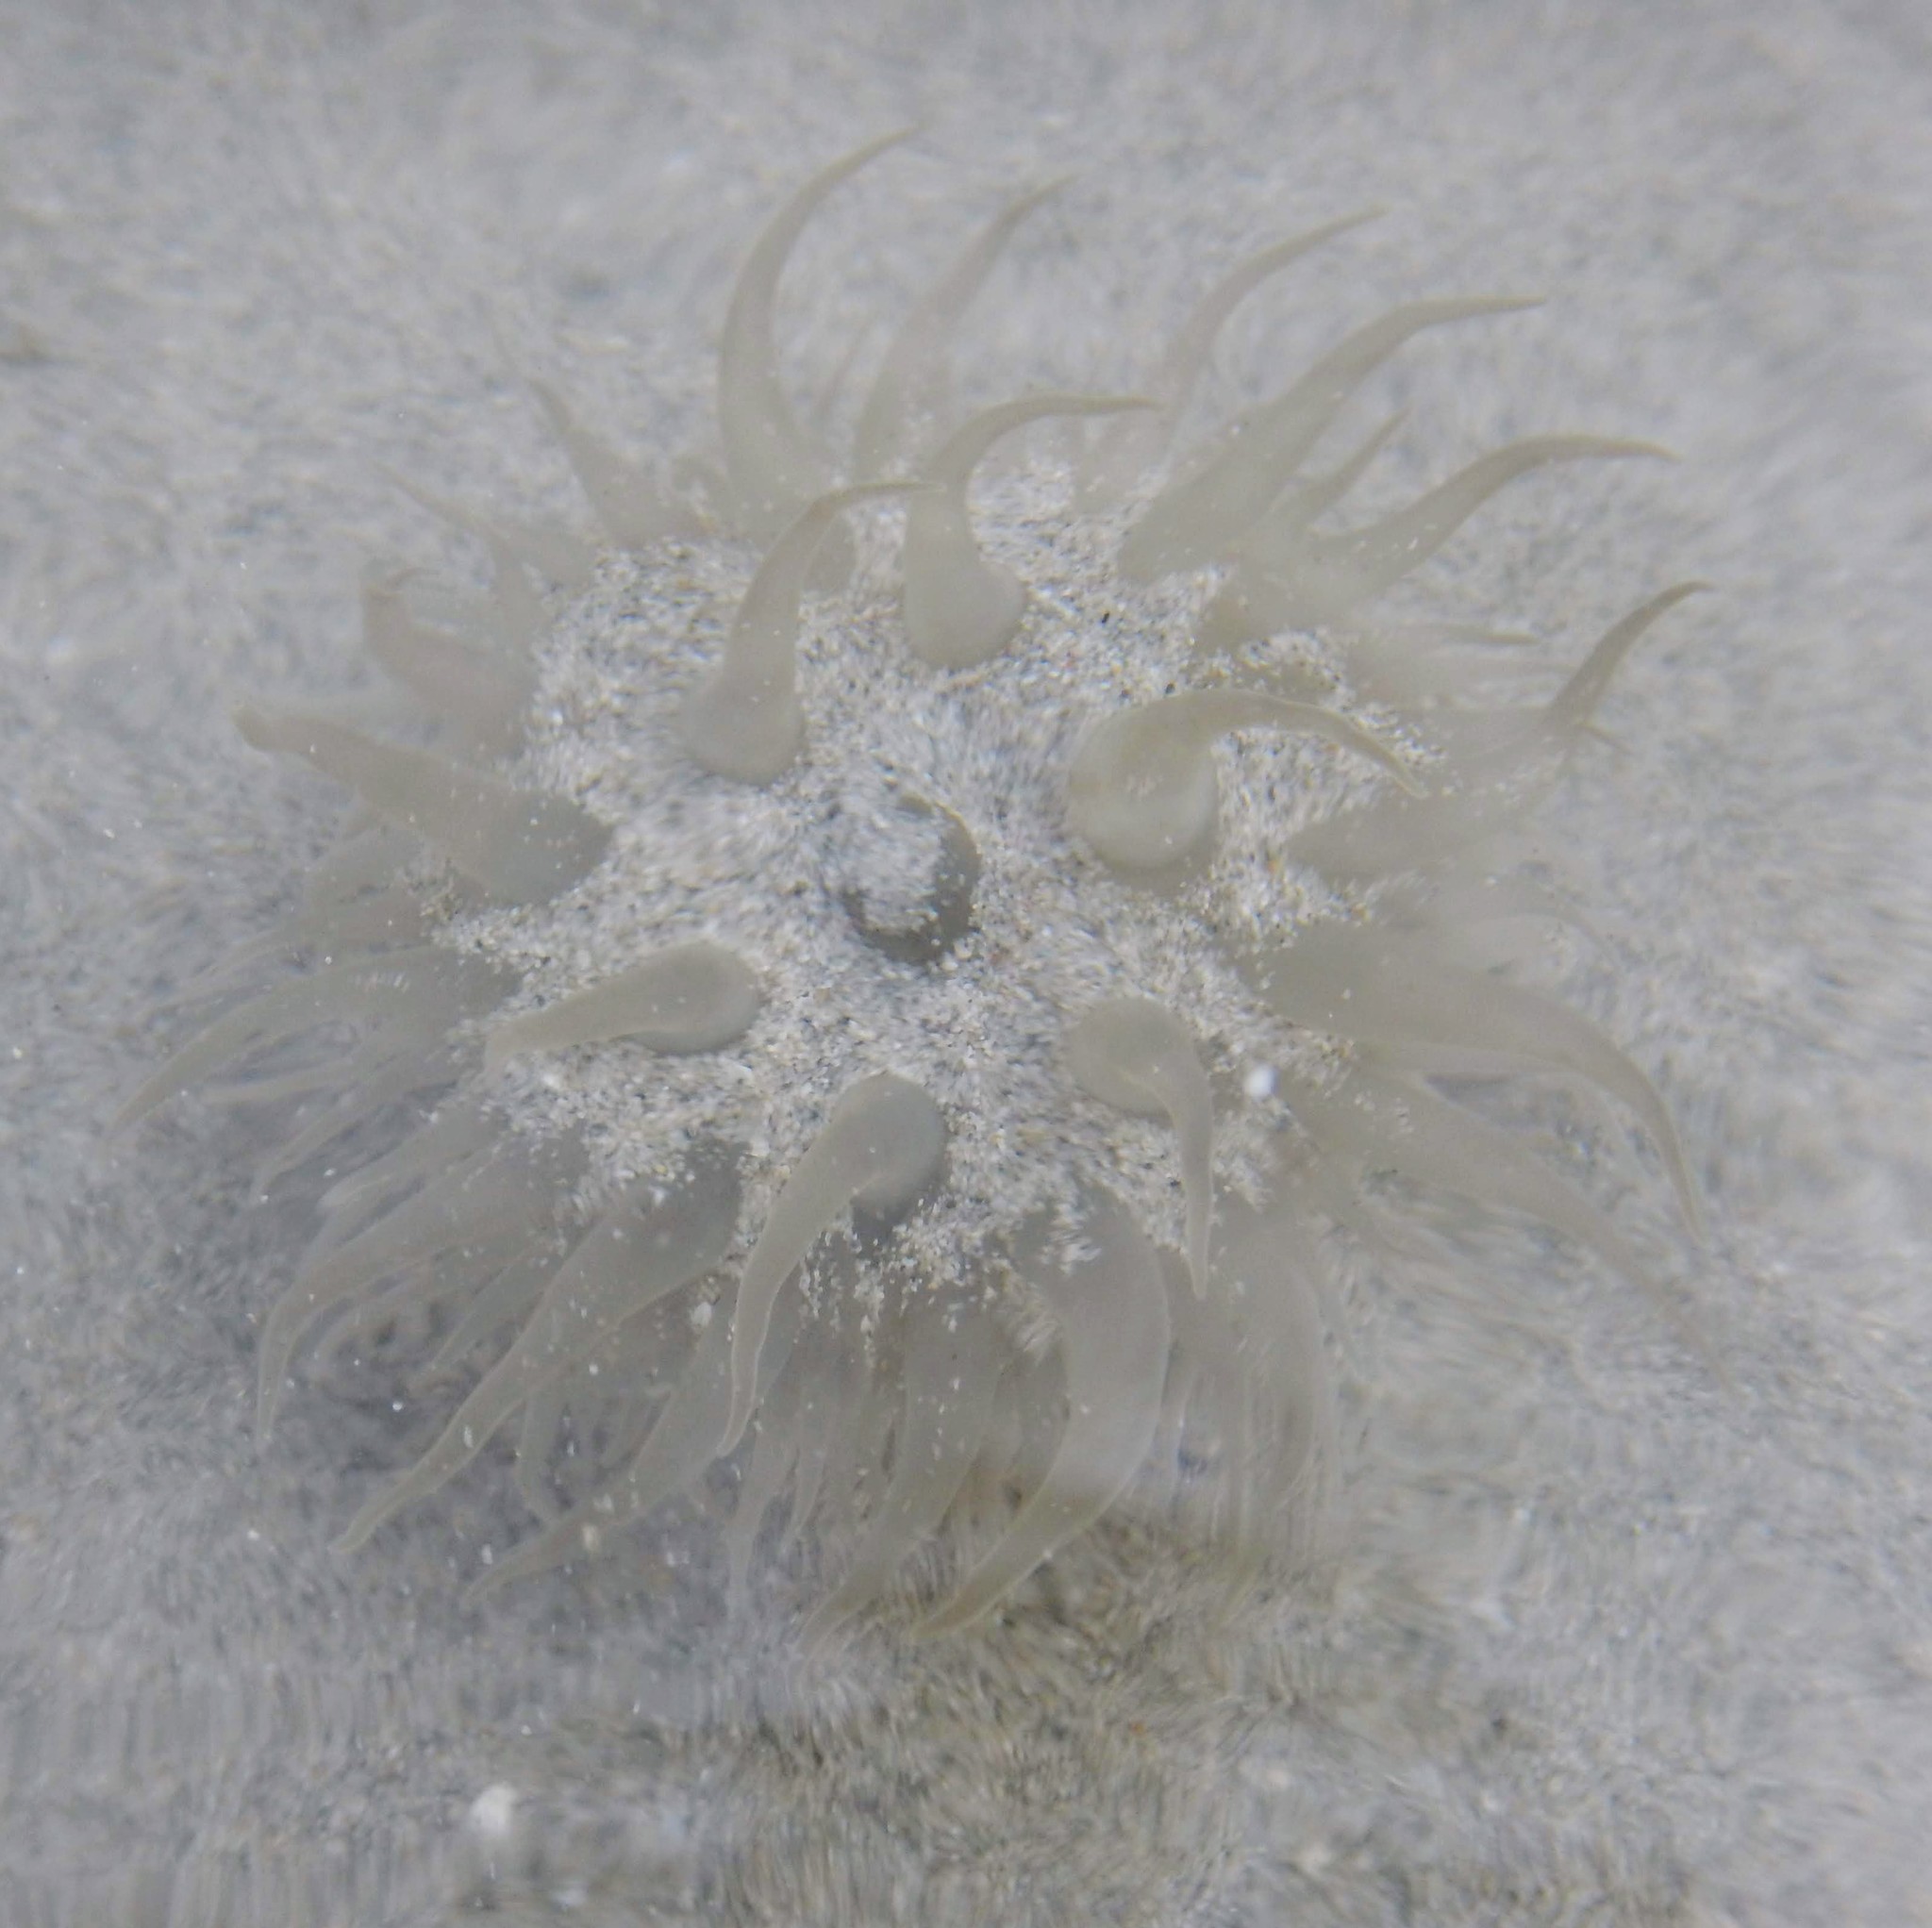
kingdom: Animalia
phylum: Cnidaria
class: Anthozoa
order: Actiniaria
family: Actiniidae
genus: Paracondylactis
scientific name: Paracondylactis sinensis
